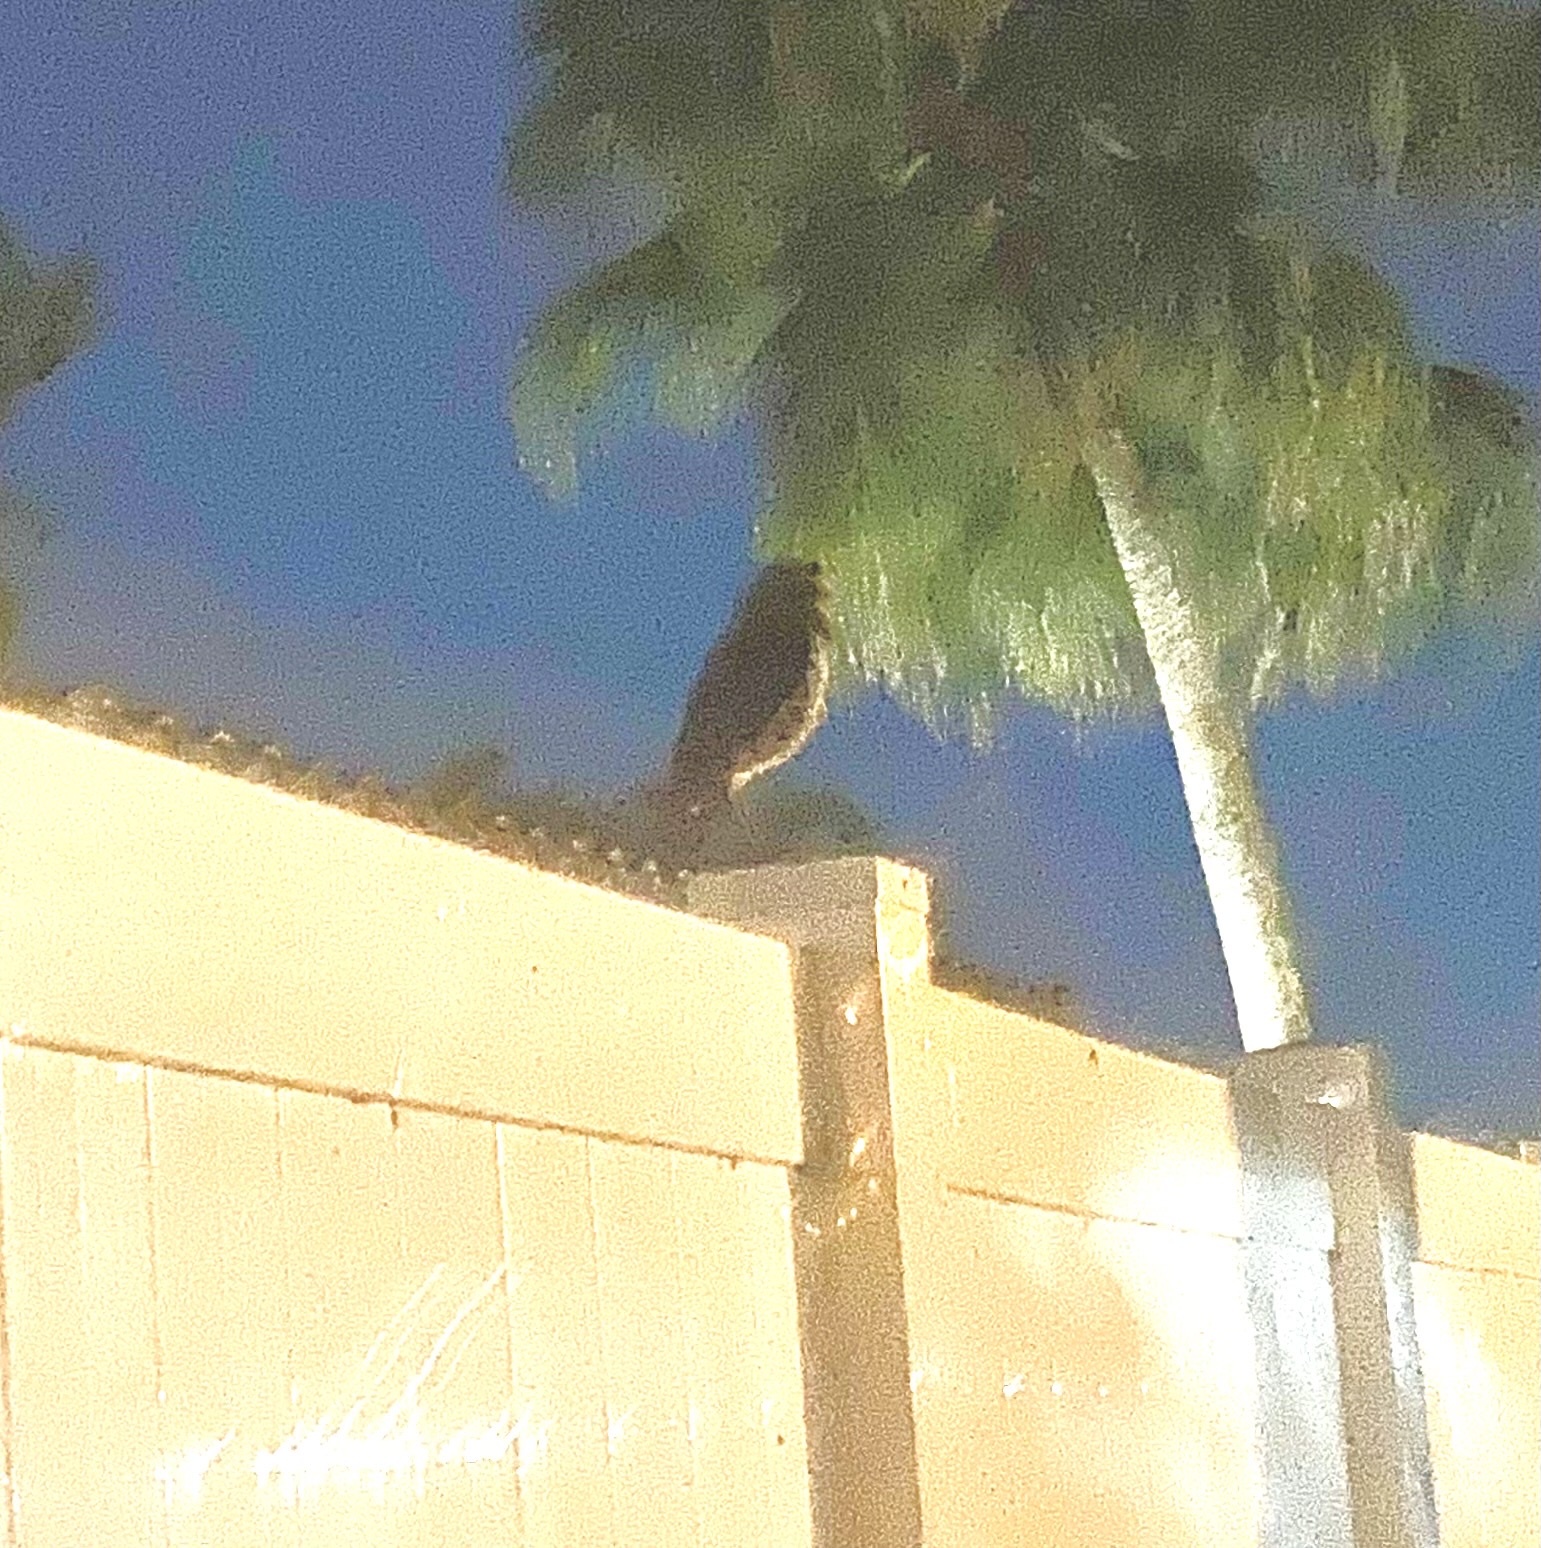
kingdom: Animalia
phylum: Chordata
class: Aves
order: Strigiformes
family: Strigidae
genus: Athene
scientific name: Athene cunicularia
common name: Burrowing owl
